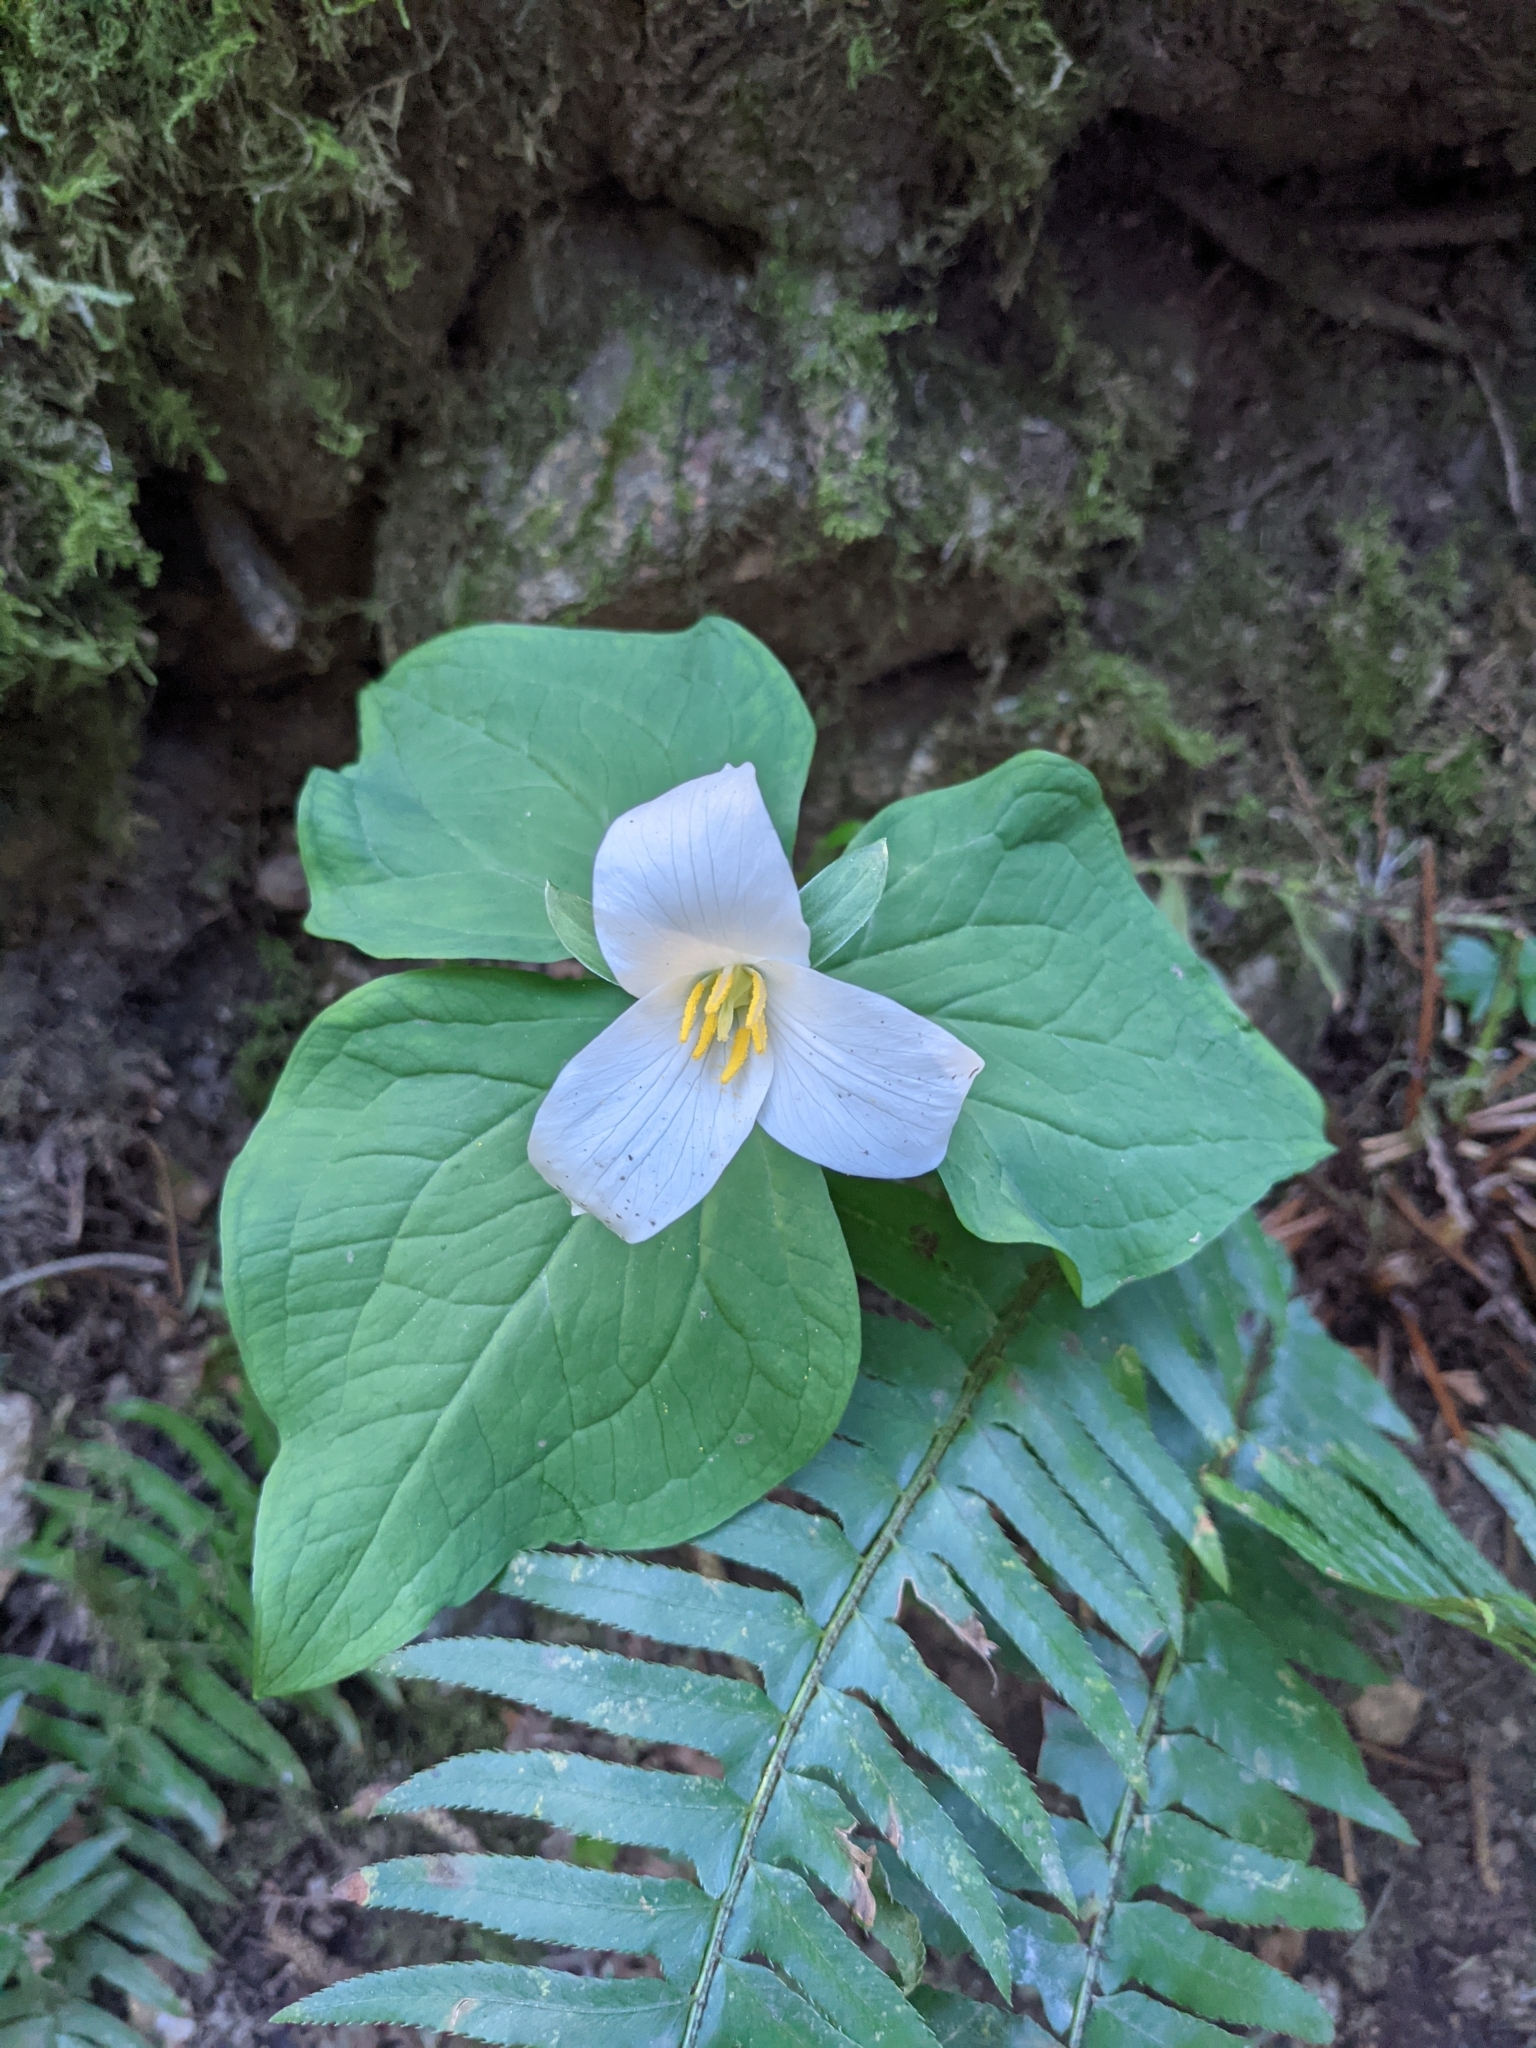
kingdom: Plantae
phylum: Tracheophyta
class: Liliopsida
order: Liliales
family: Melanthiaceae
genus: Trillium
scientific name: Trillium ovatum
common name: Pacific trillium
